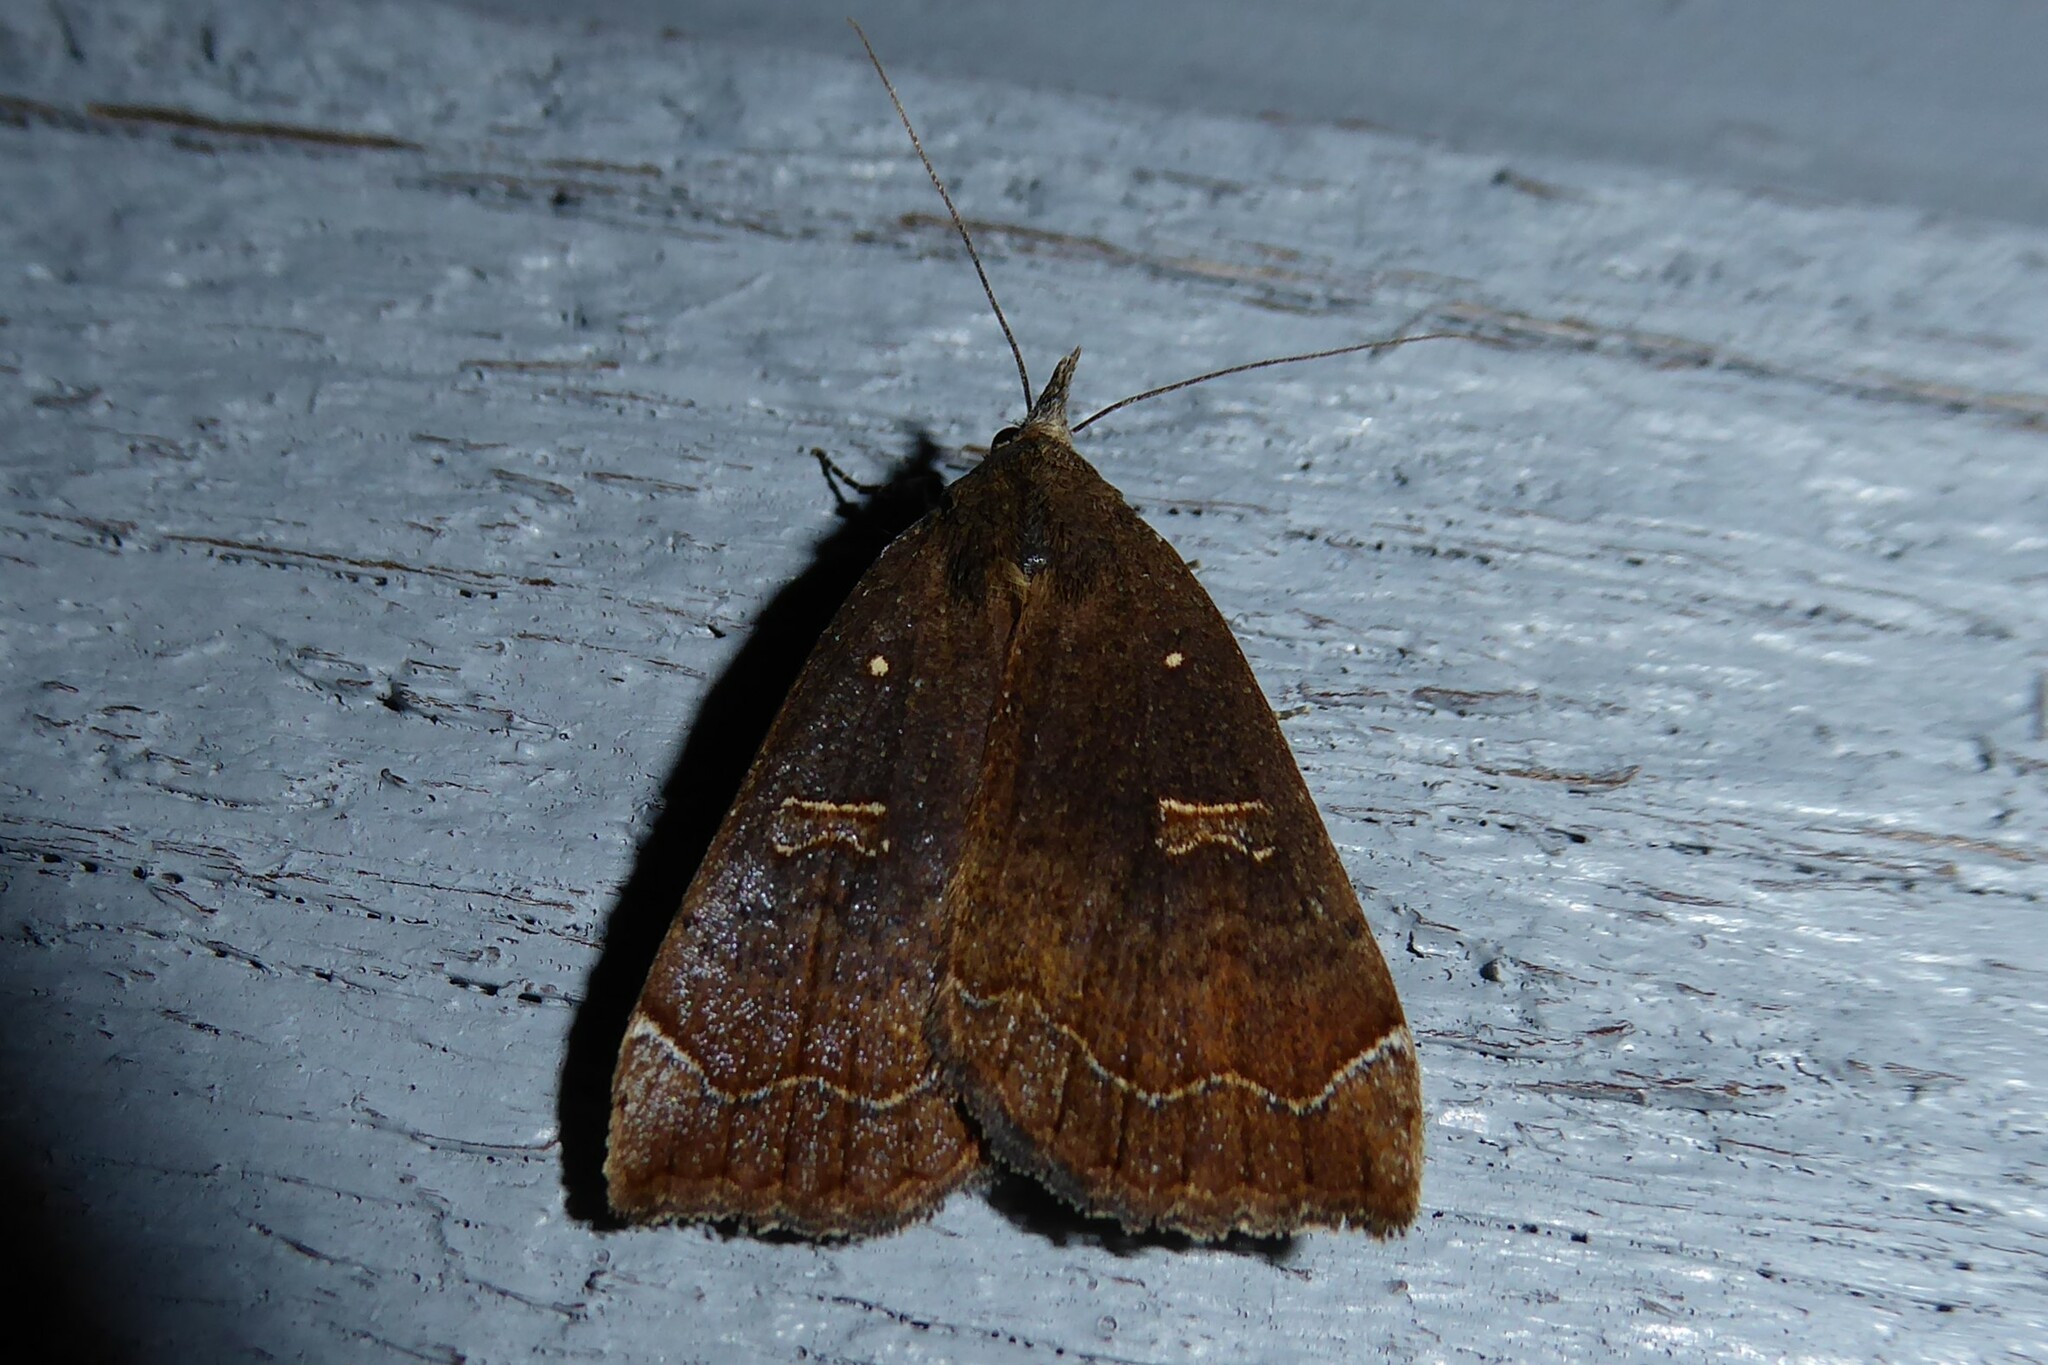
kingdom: Animalia
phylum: Arthropoda
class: Insecta
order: Lepidoptera
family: Erebidae
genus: Rhapsa
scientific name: Rhapsa scotosialis
